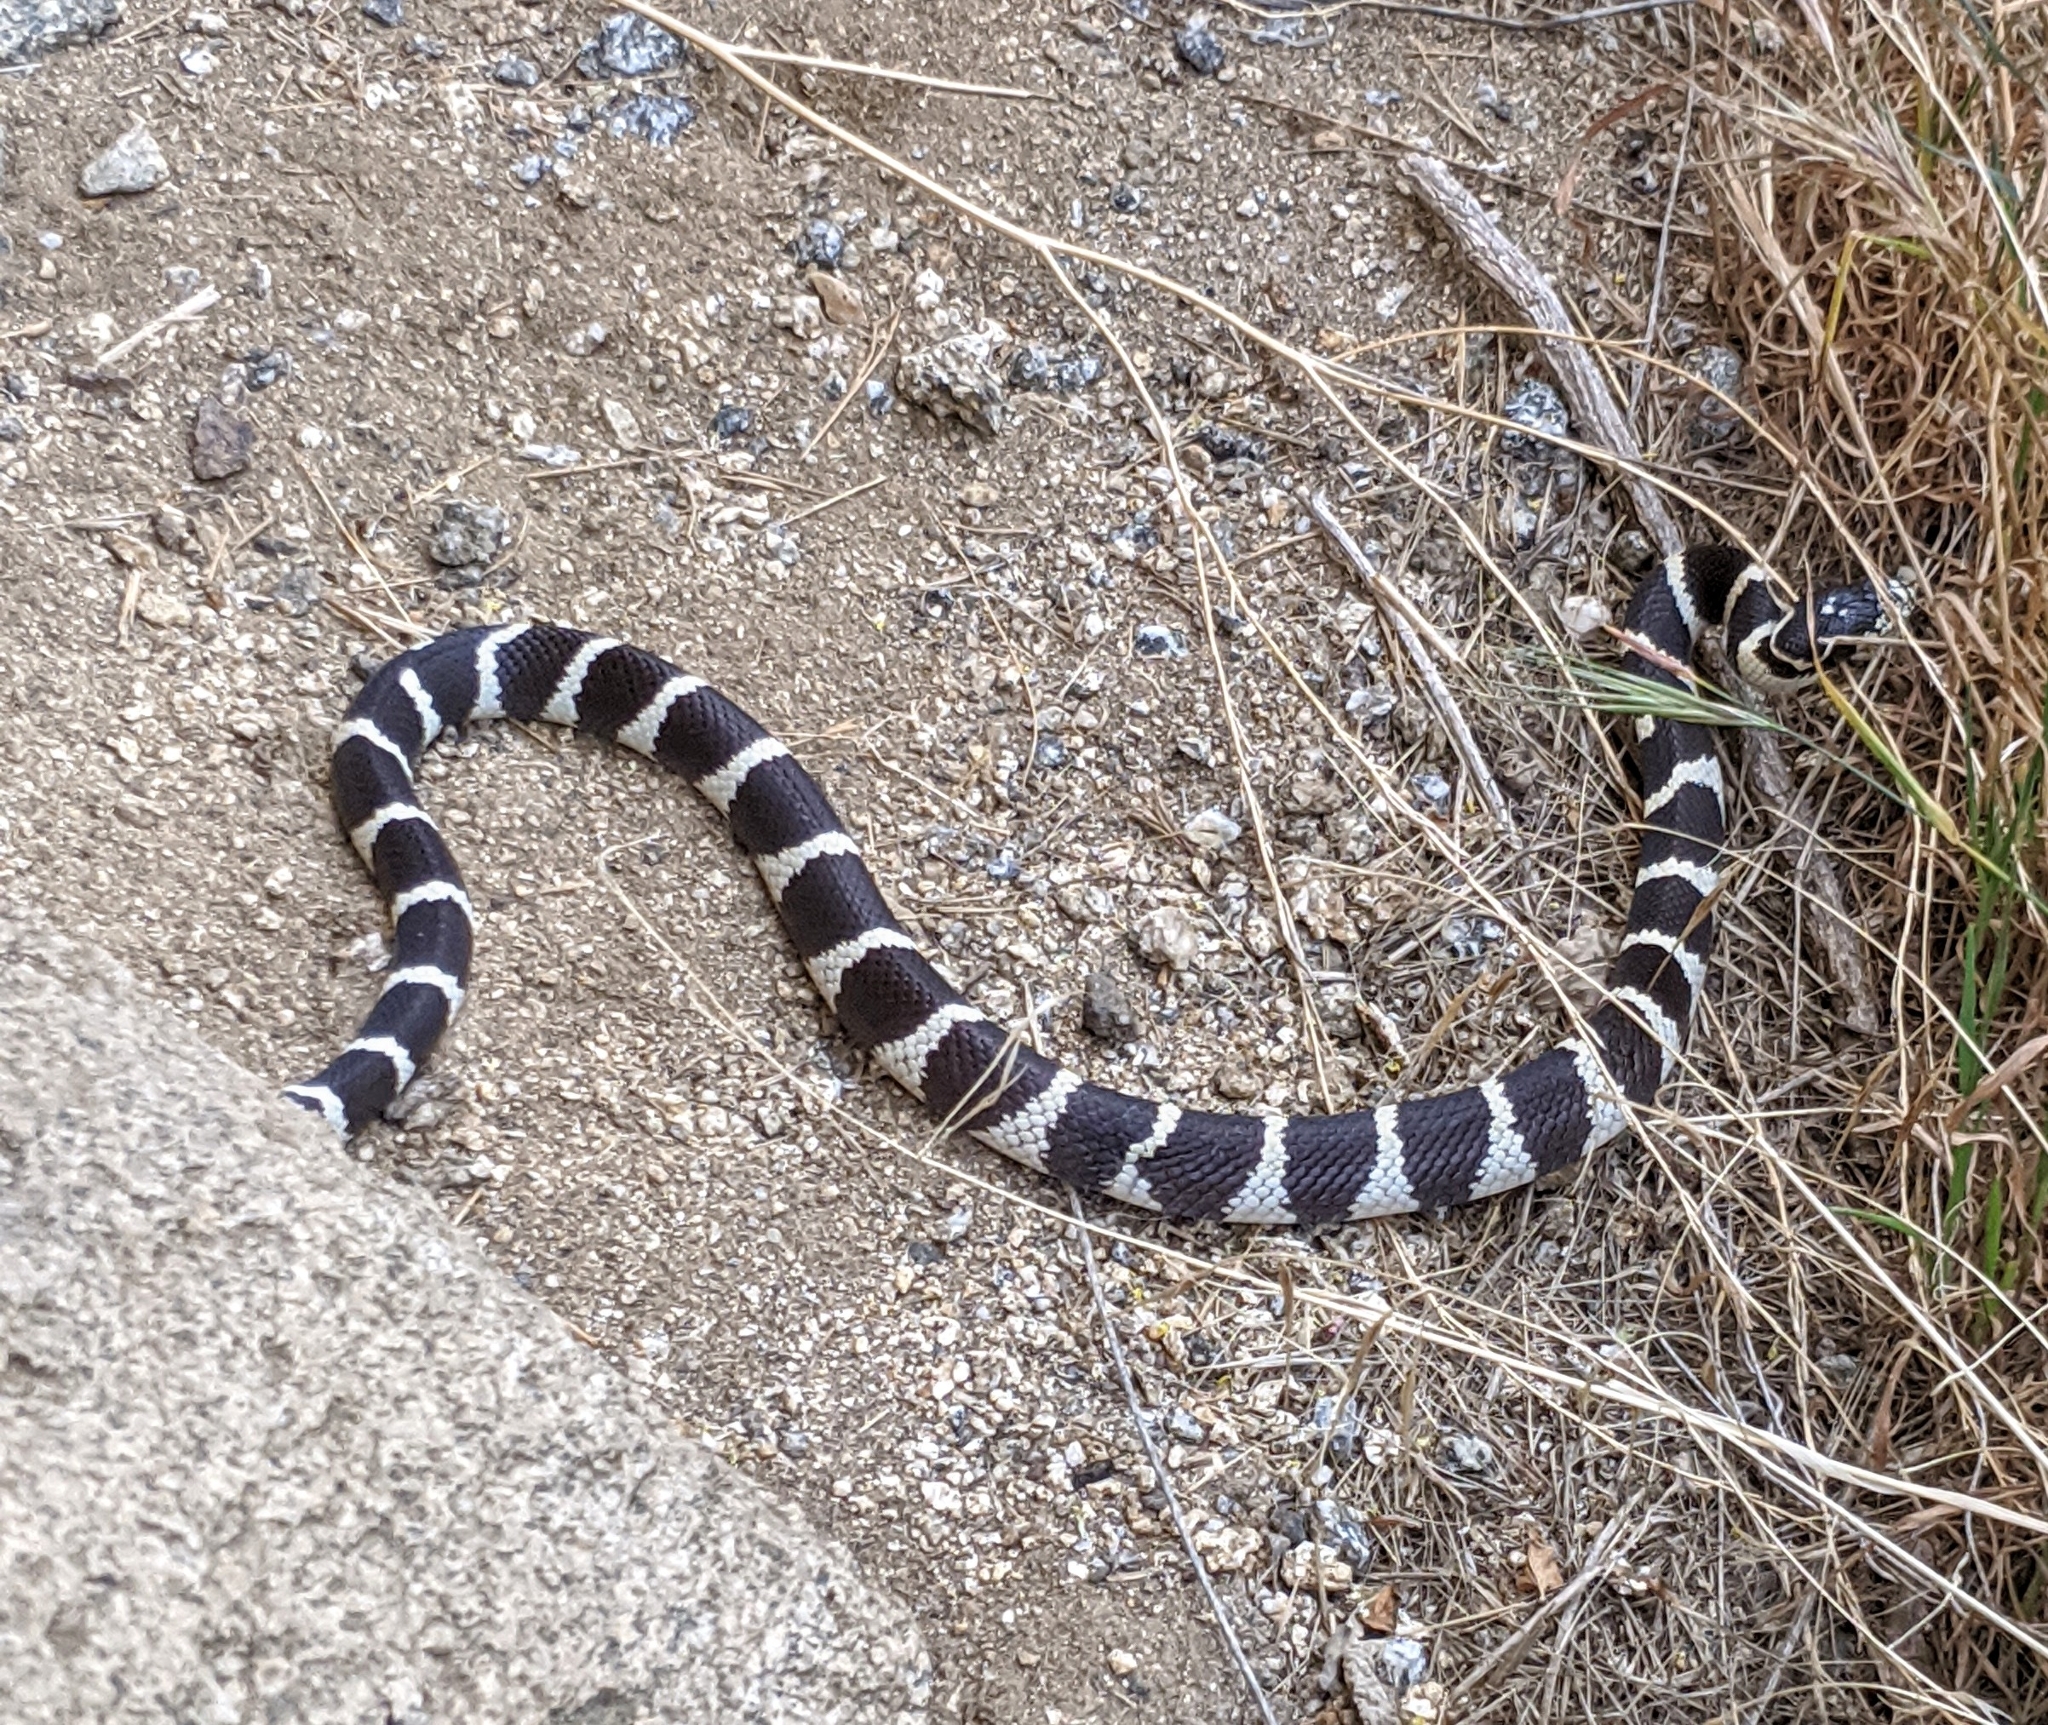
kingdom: Animalia
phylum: Chordata
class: Squamata
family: Colubridae
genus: Lampropeltis
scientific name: Lampropeltis californiae
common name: California kingsnake
